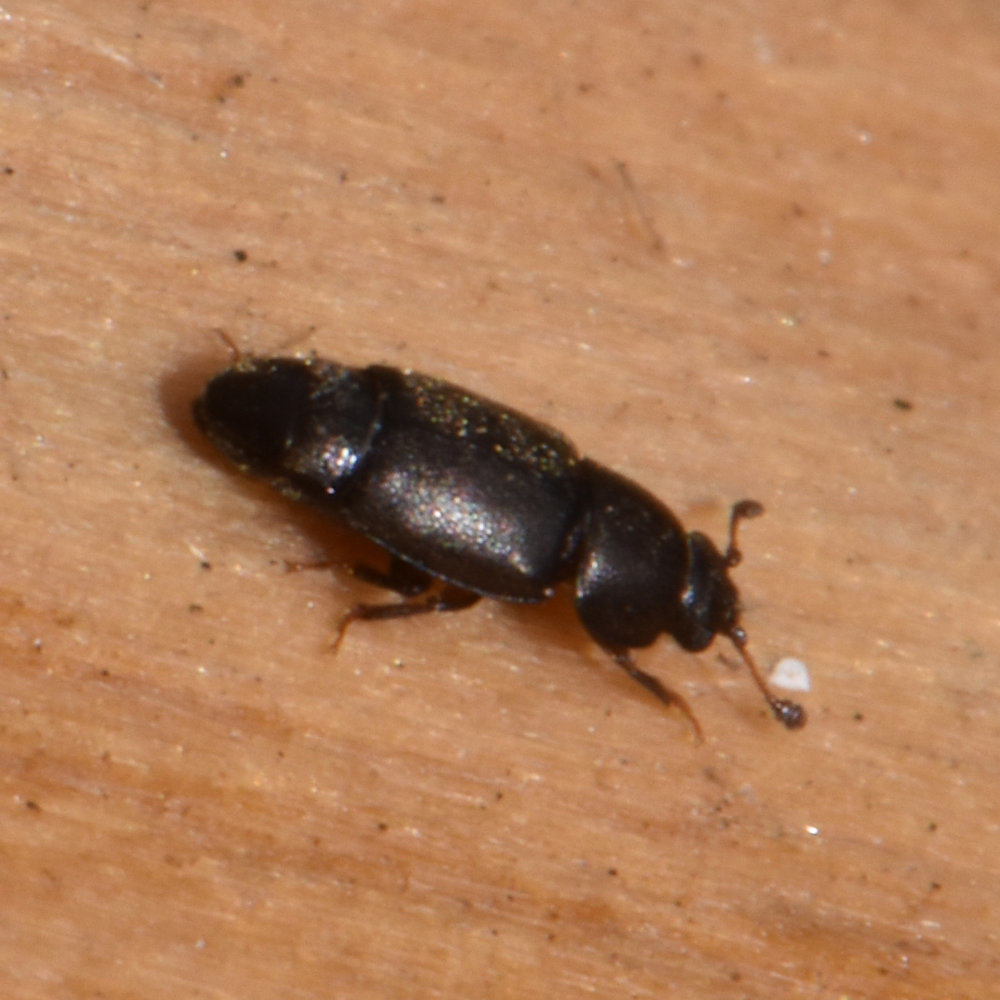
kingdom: Animalia
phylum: Arthropoda
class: Insecta
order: Coleoptera
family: Nitidulidae
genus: Carpophilus
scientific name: Carpophilus brachypterus
